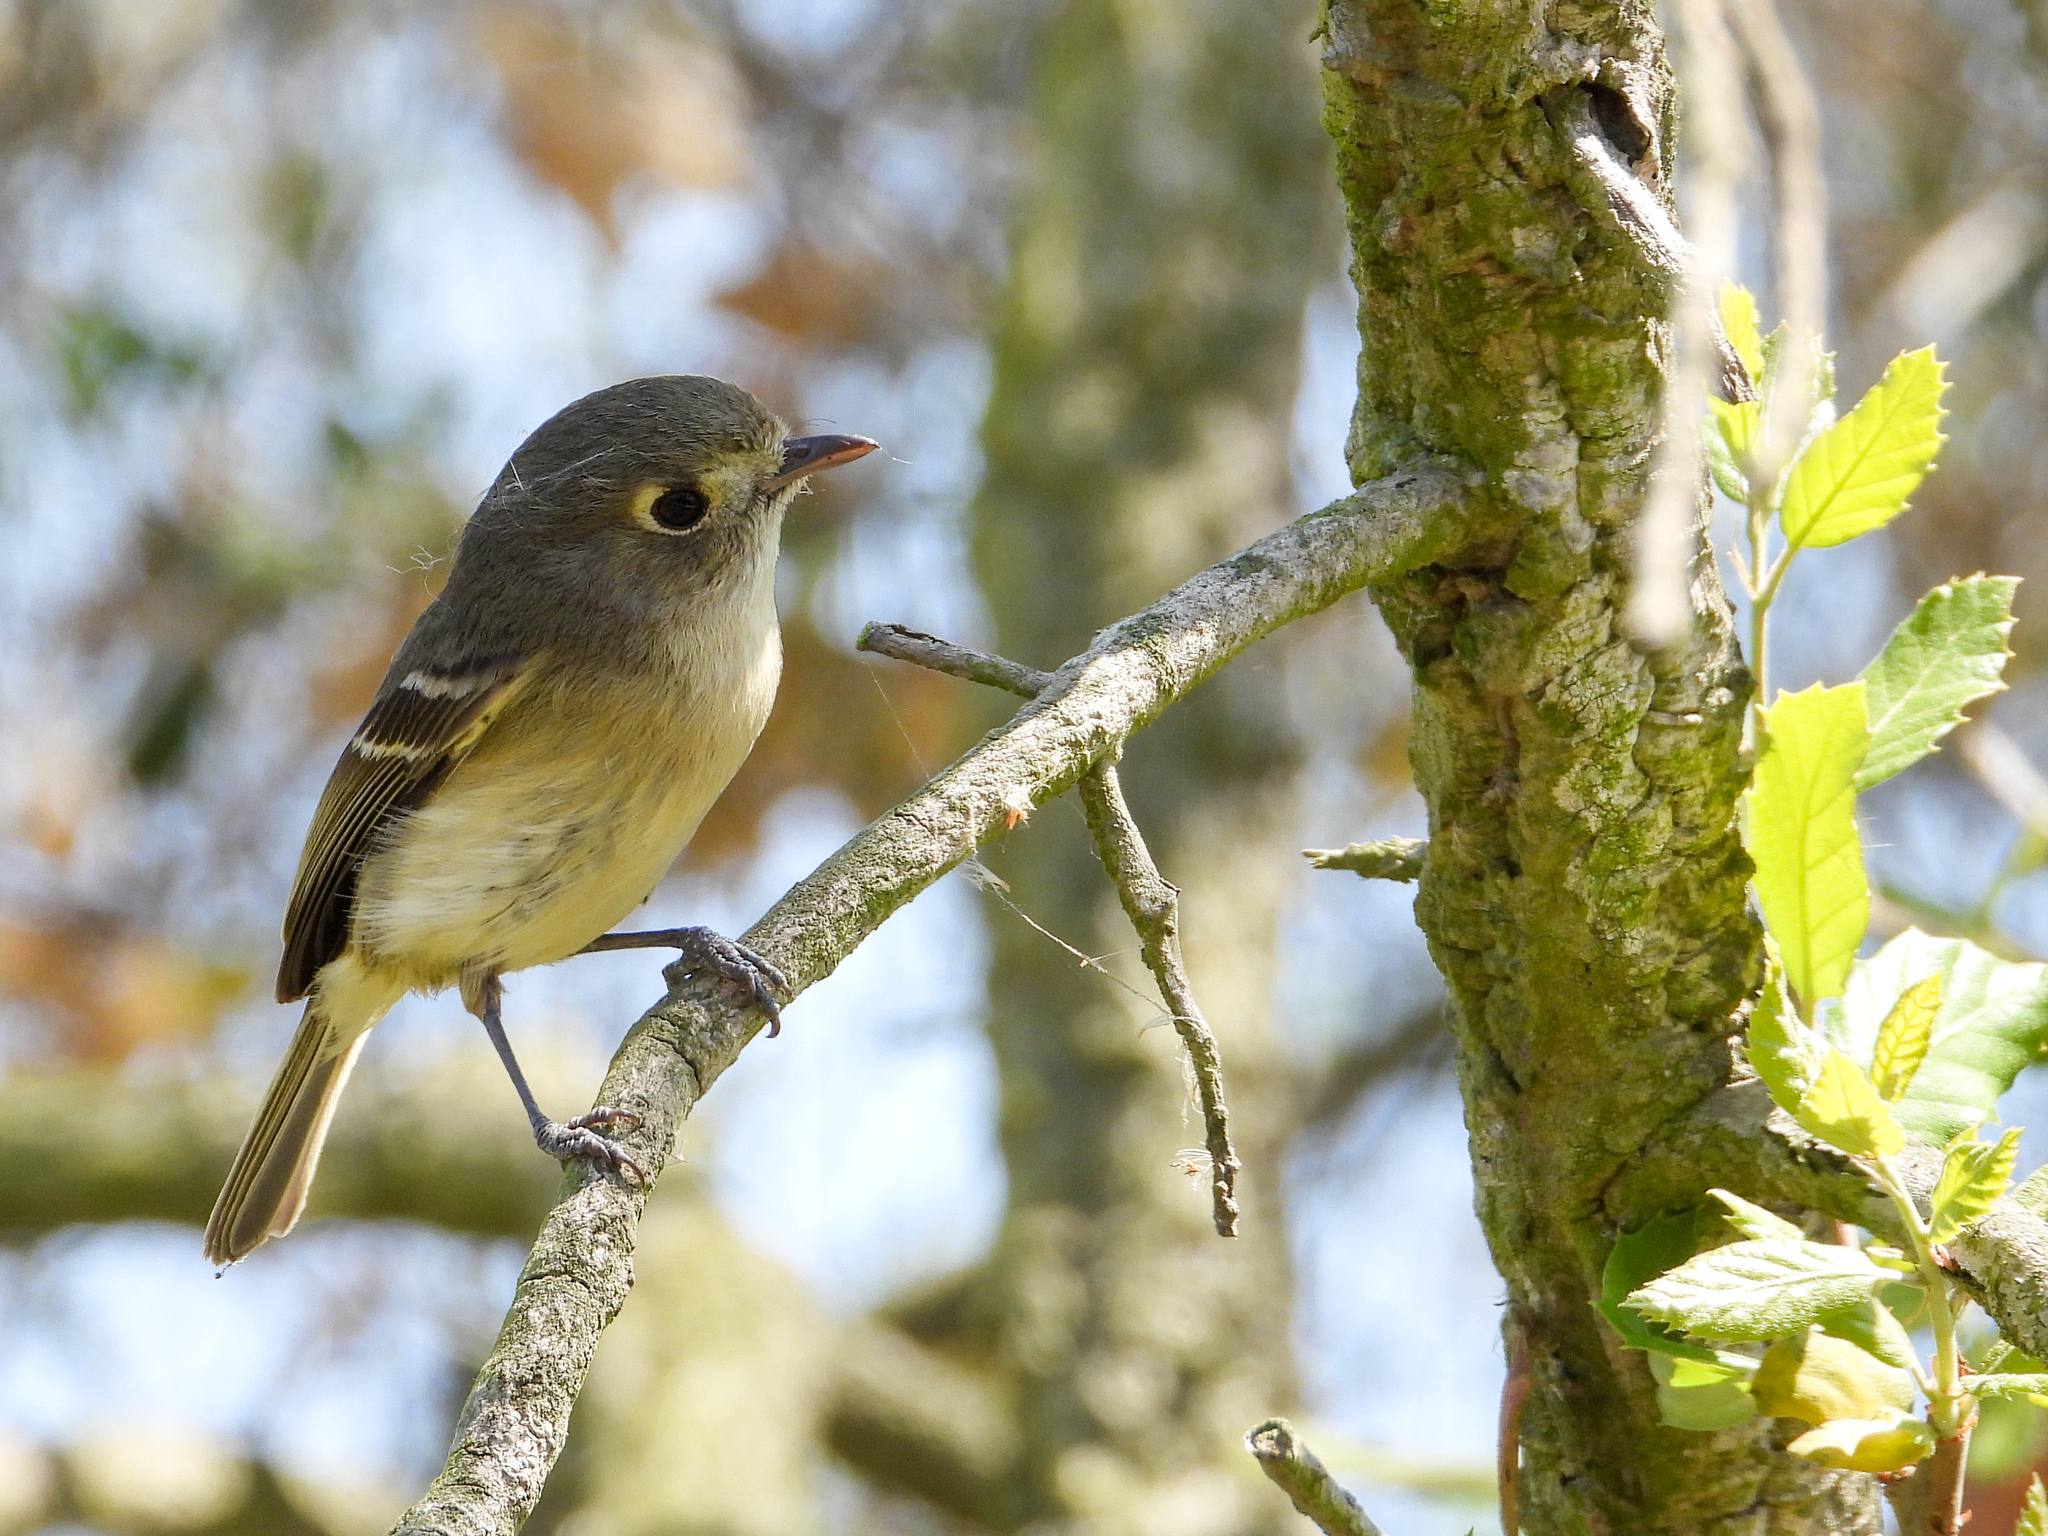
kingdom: Animalia
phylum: Chordata
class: Aves
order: Passeriformes
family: Vireonidae
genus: Vireo
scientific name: Vireo huttoni
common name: Hutton's vireo
